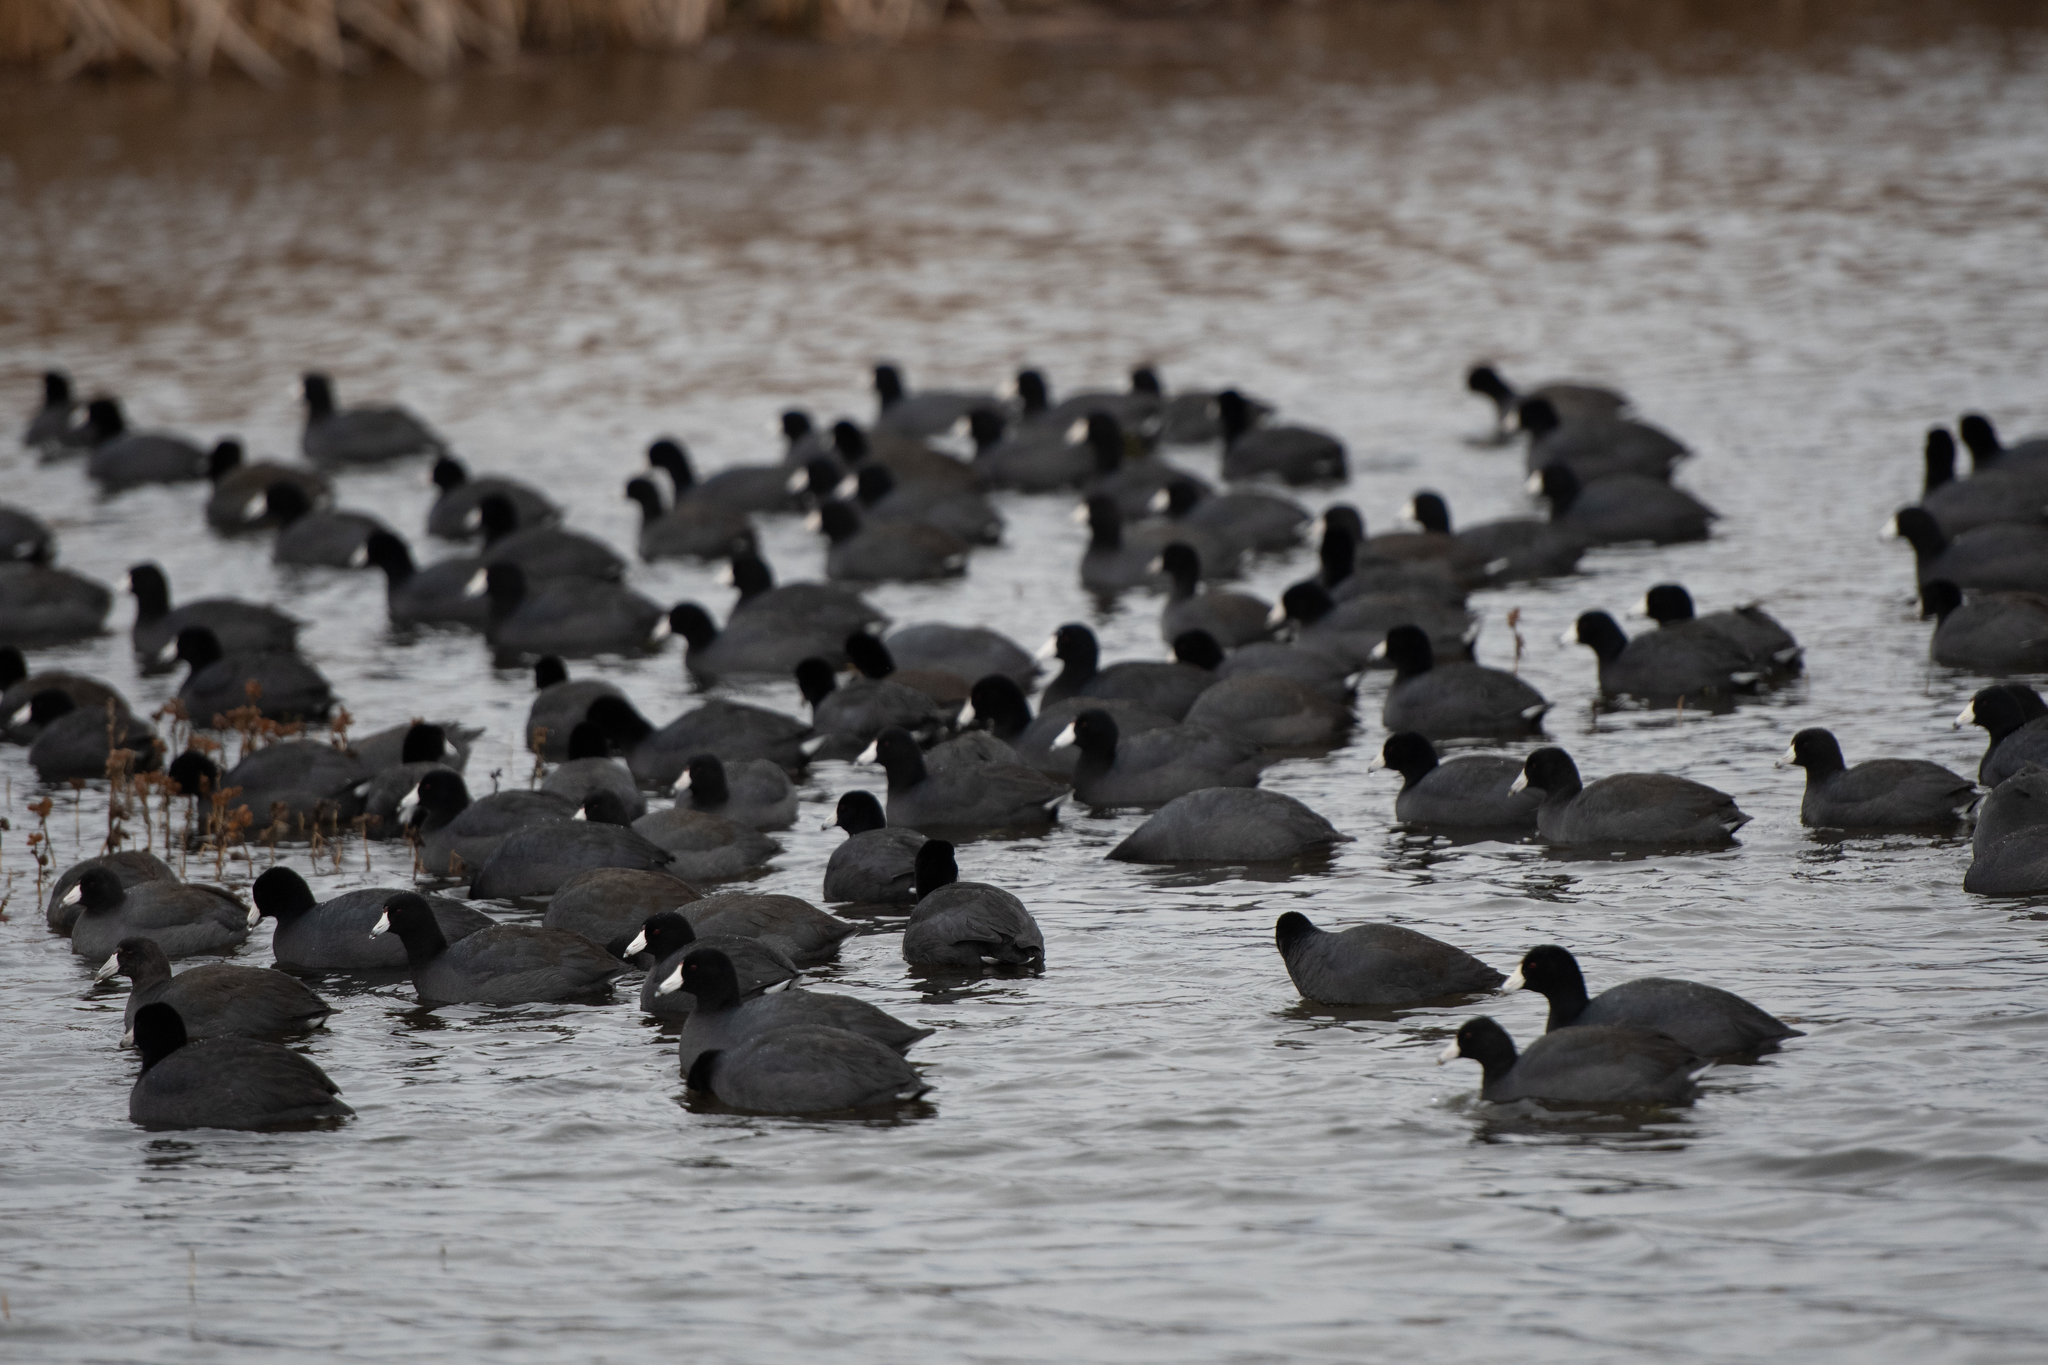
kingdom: Animalia
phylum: Chordata
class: Aves
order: Gruiformes
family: Rallidae
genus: Fulica
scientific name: Fulica americana
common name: American coot
